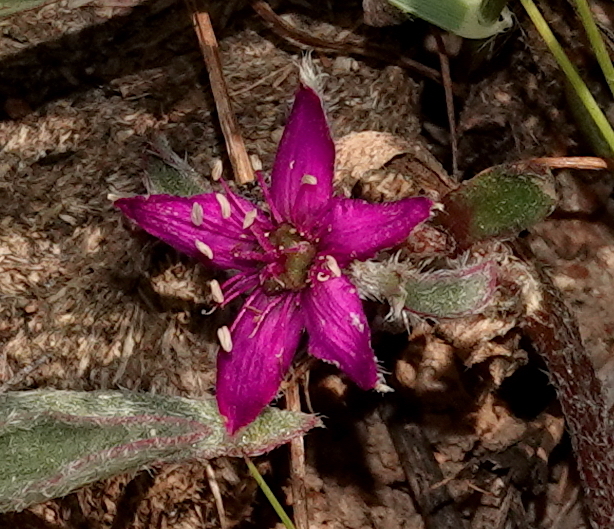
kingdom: Plantae
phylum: Tracheophyta
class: Magnoliopsida
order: Caryophyllales
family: Aizoaceae
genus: Aizoon
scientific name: Aizoon paniculatum
